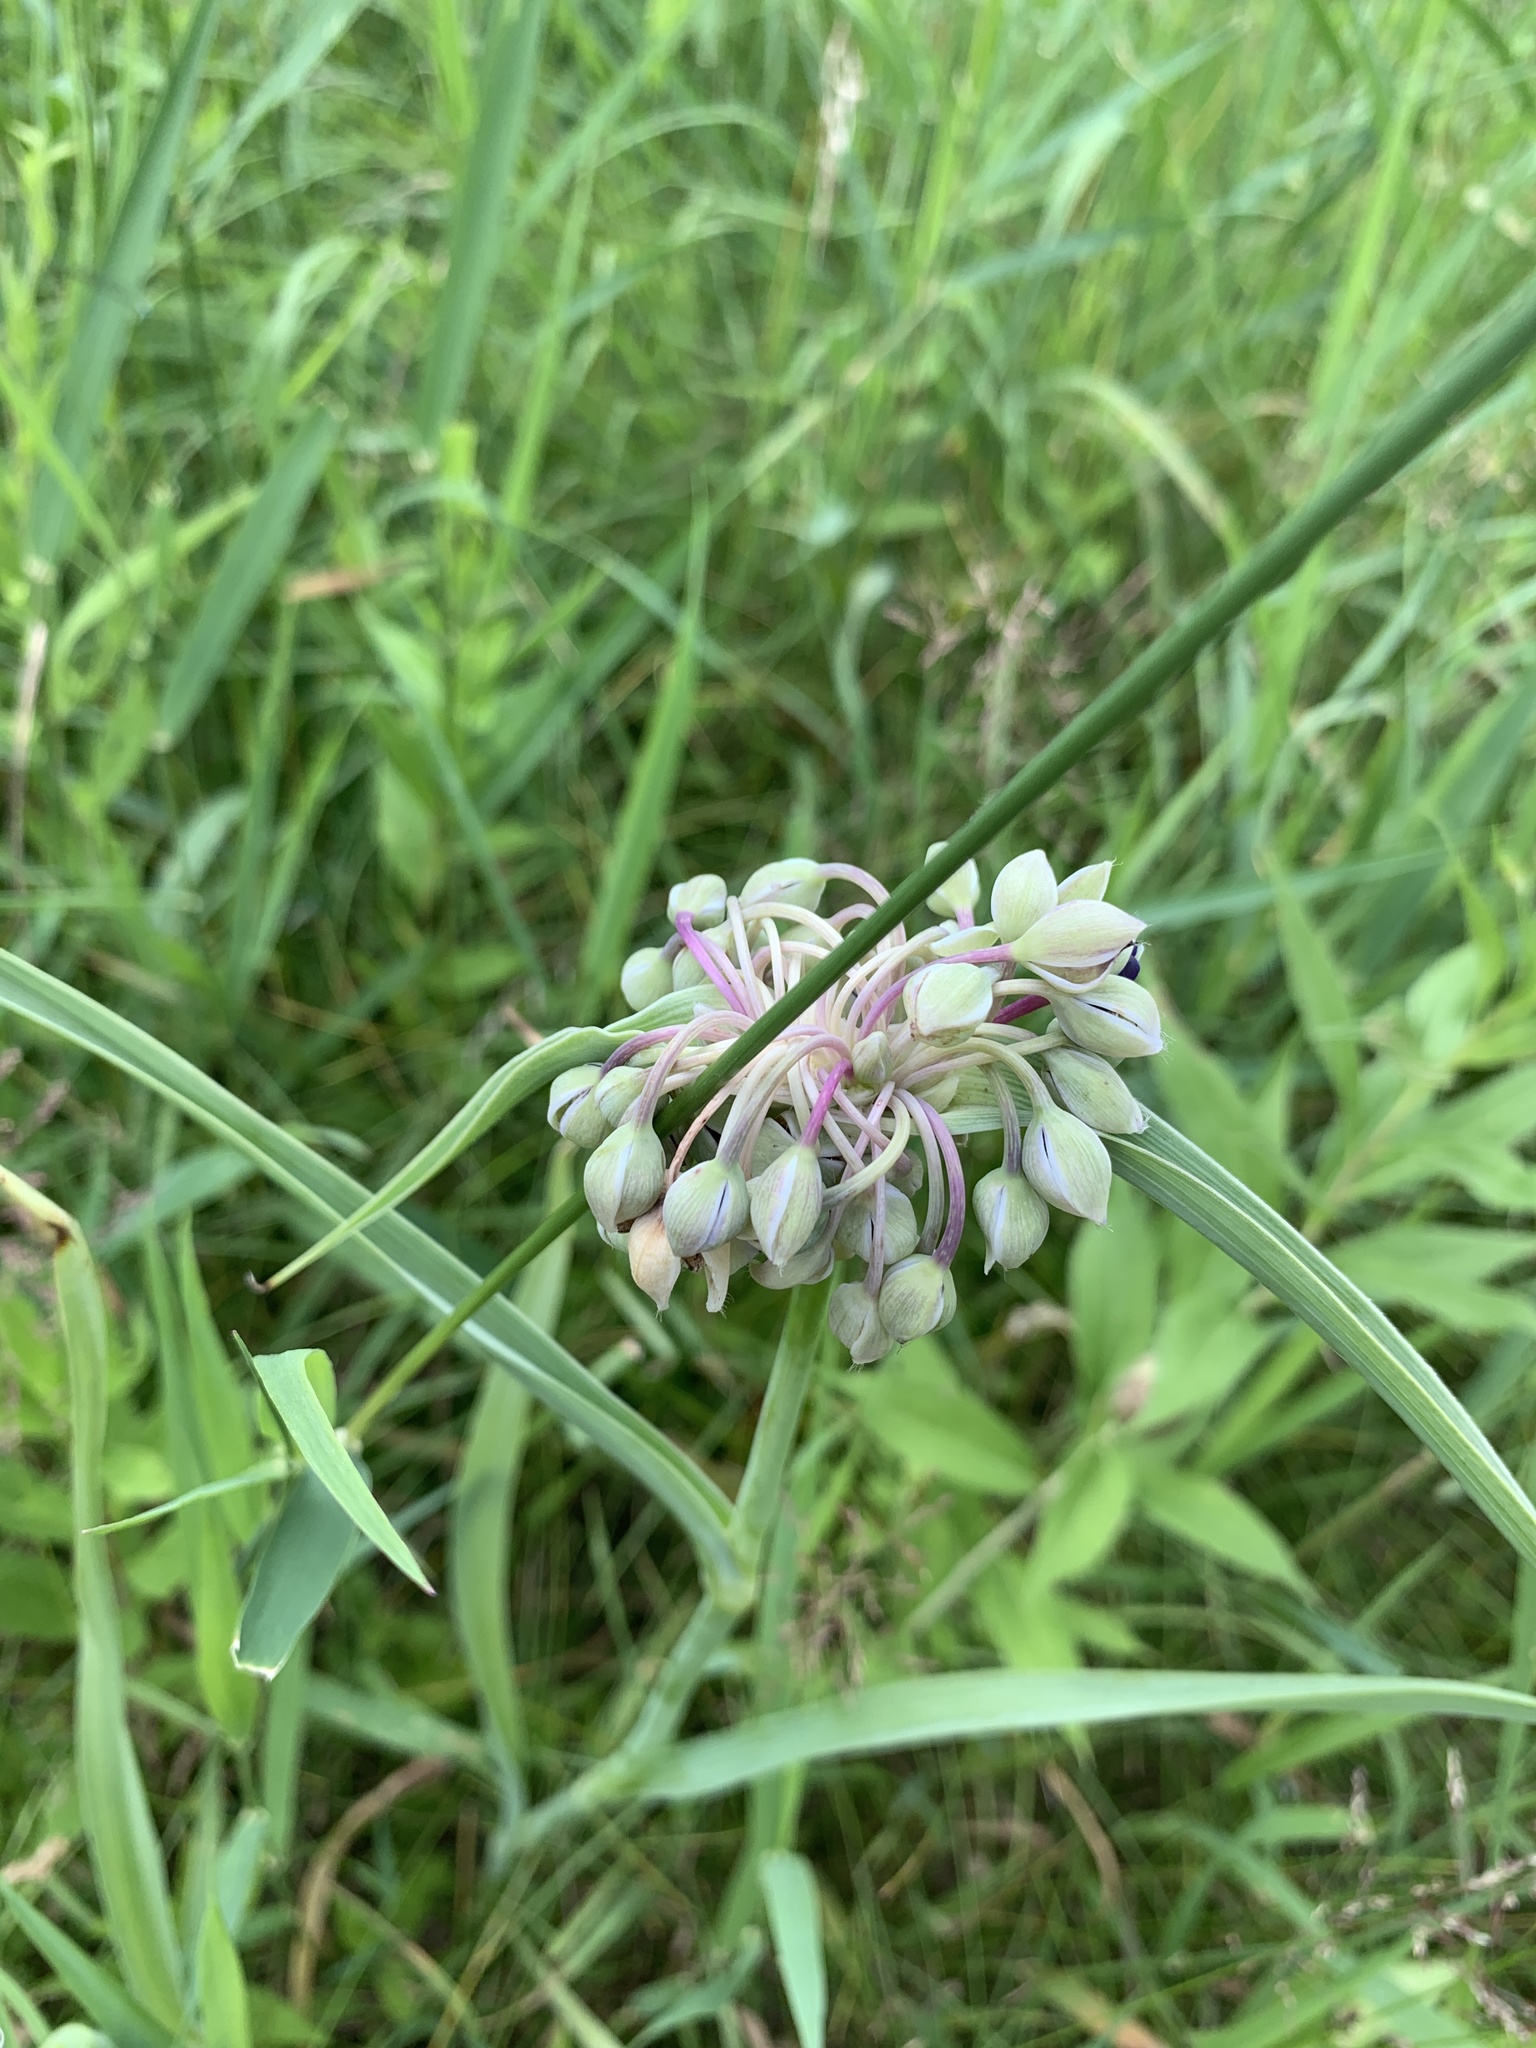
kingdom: Plantae
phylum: Tracheophyta
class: Liliopsida
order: Commelinales
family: Commelinaceae
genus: Tradescantia
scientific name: Tradescantia ohiensis
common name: Ohio spiderwort
